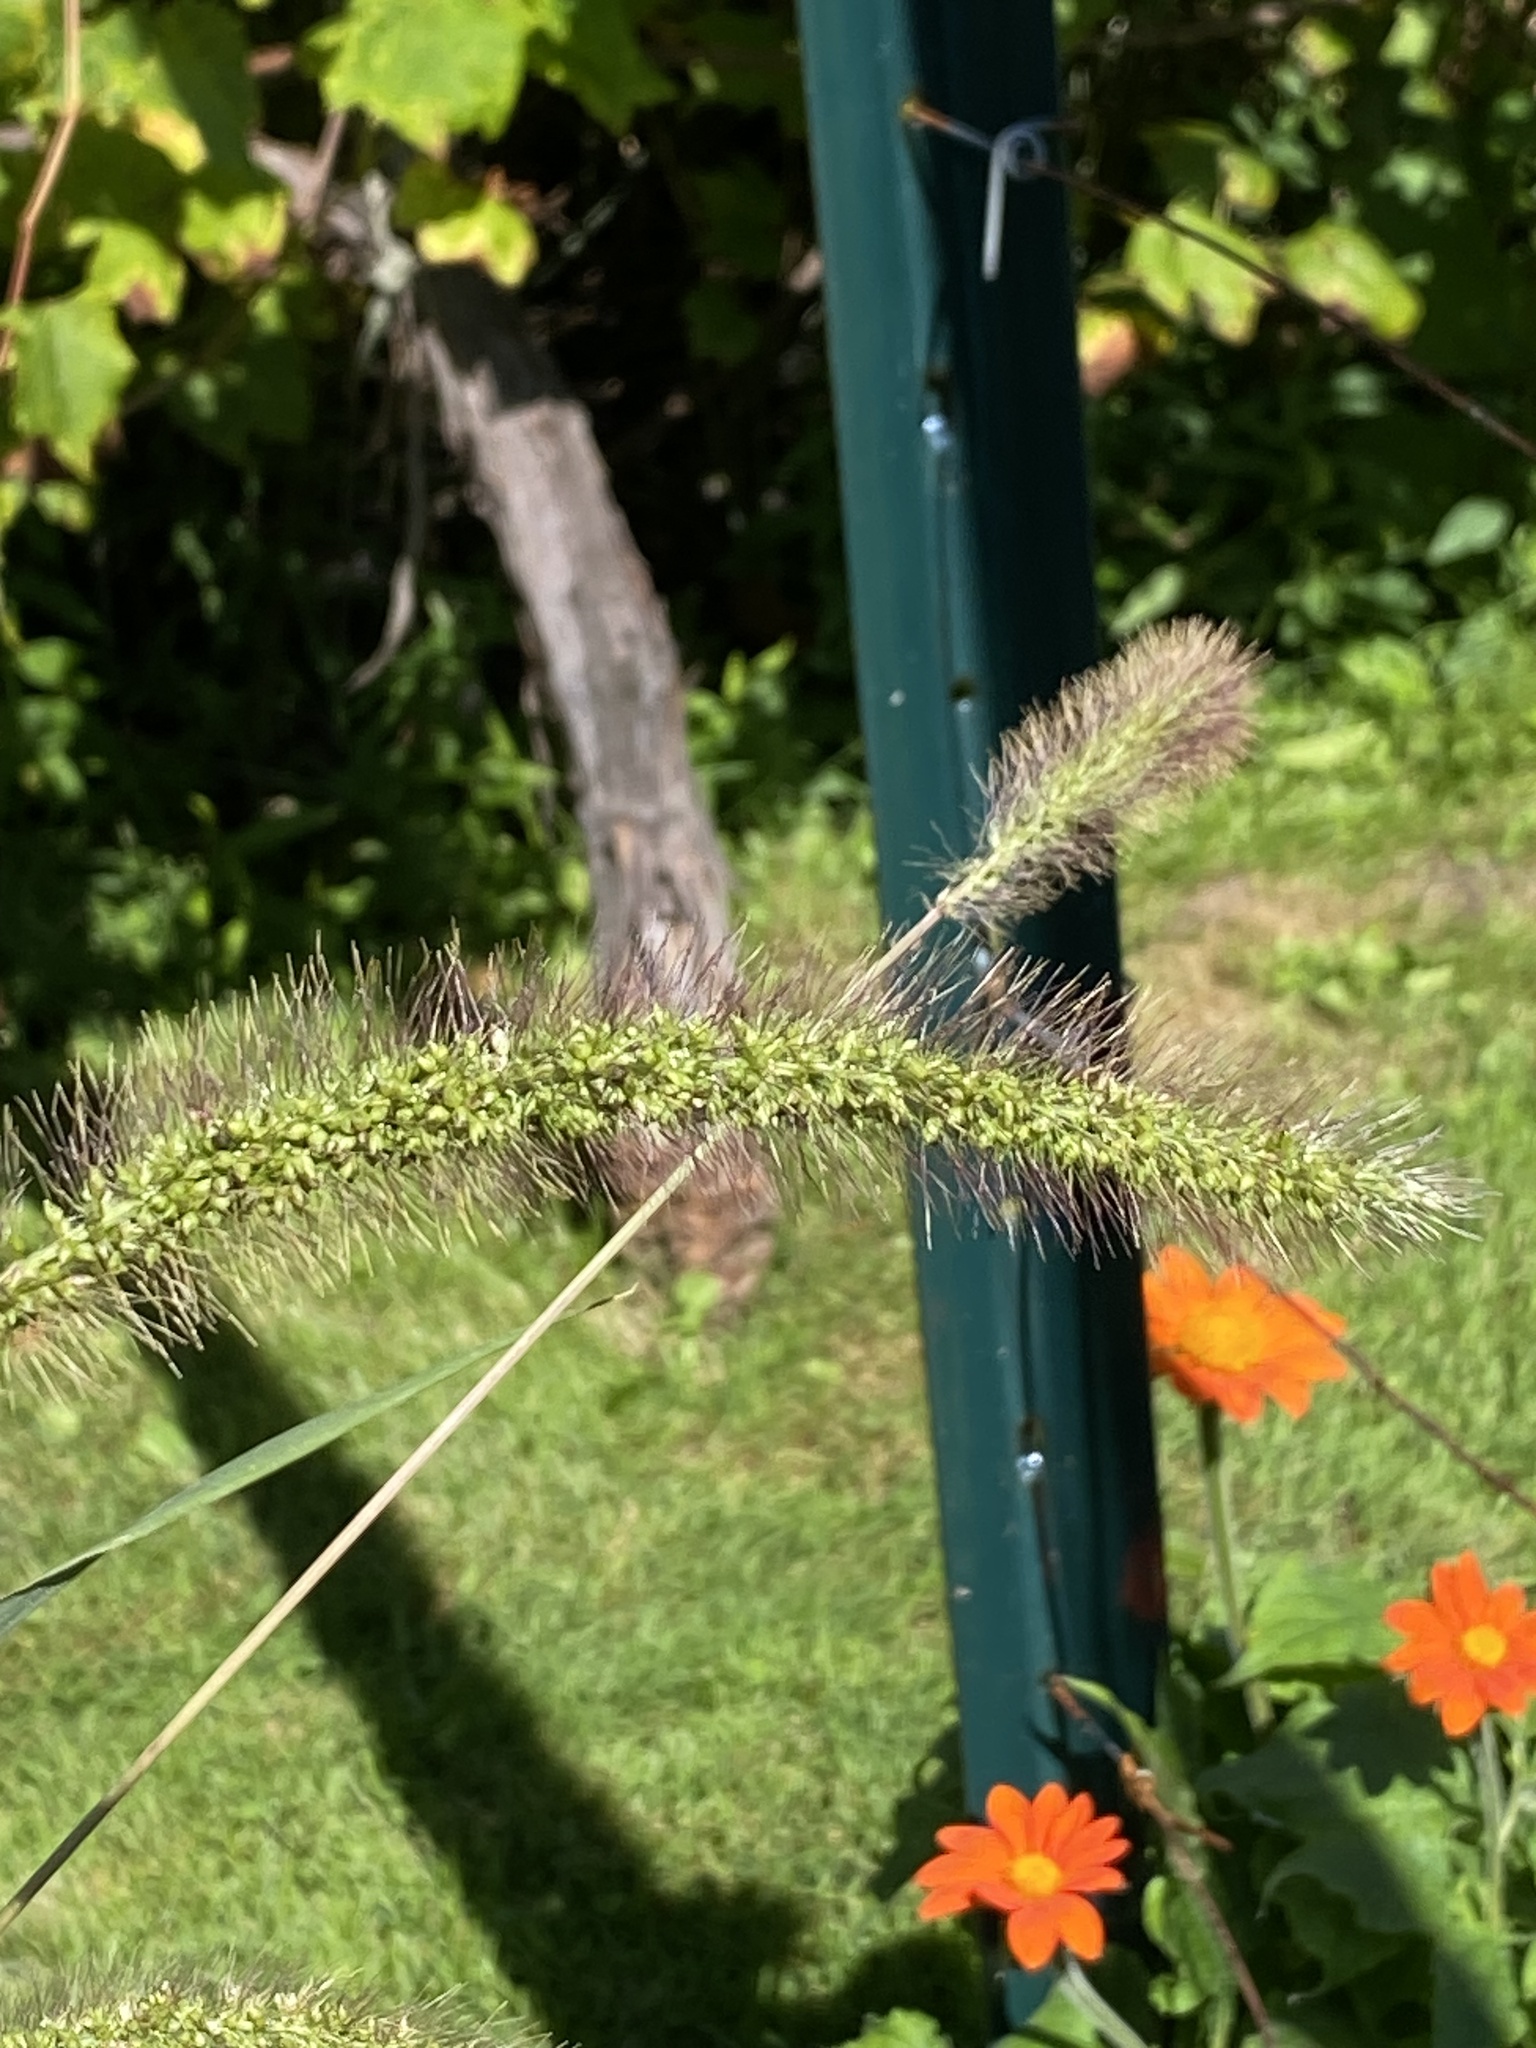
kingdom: Plantae
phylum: Tracheophyta
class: Liliopsida
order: Poales
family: Poaceae
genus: Setaria
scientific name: Setaria faberi
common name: Nodding bristle-grass
